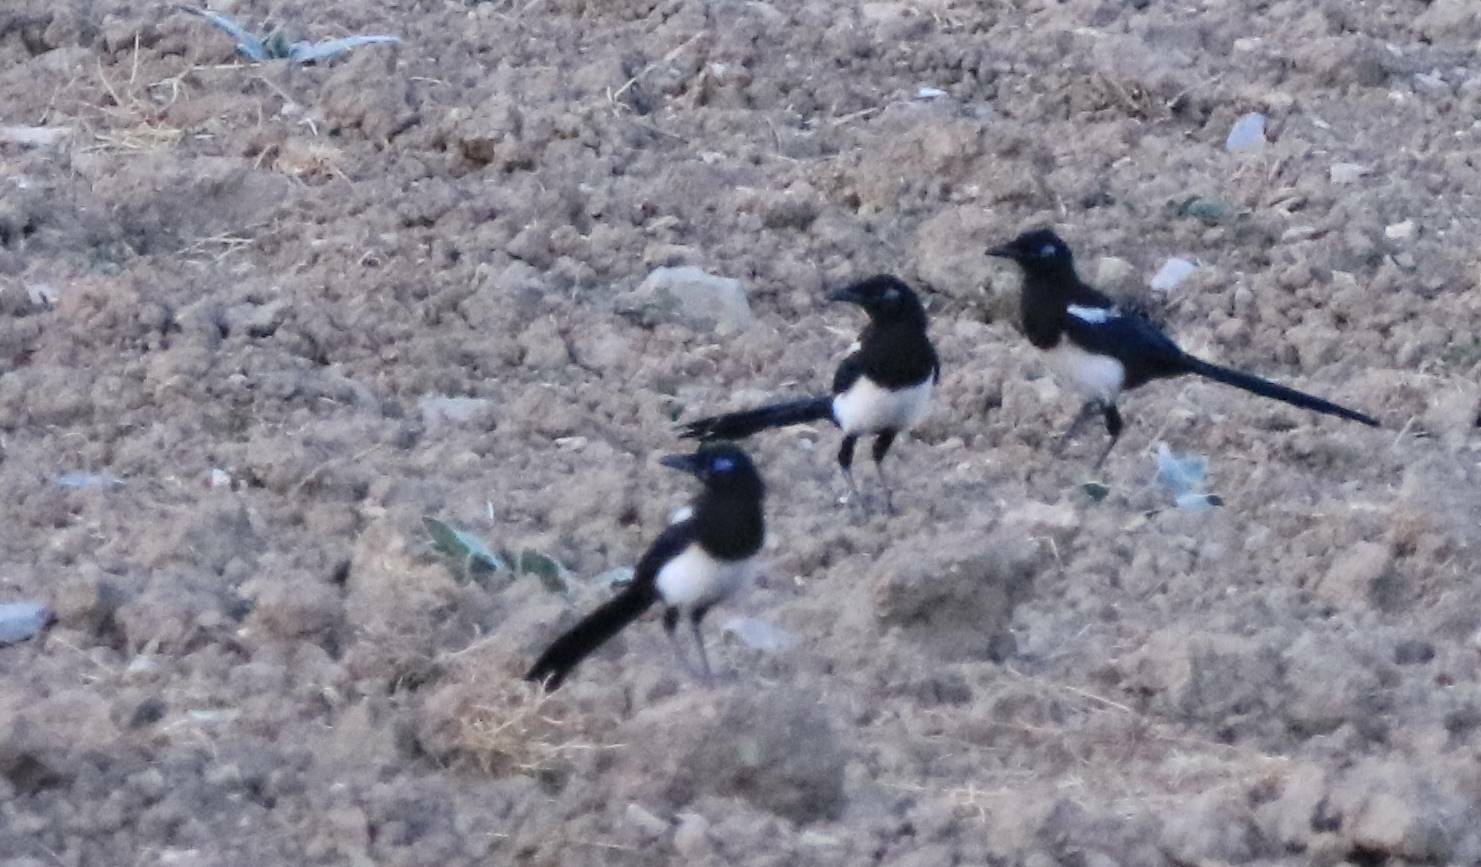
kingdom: Animalia
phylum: Chordata
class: Aves
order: Passeriformes
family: Corvidae
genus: Pica
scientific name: Pica mauritanica
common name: Maghreb magpie
